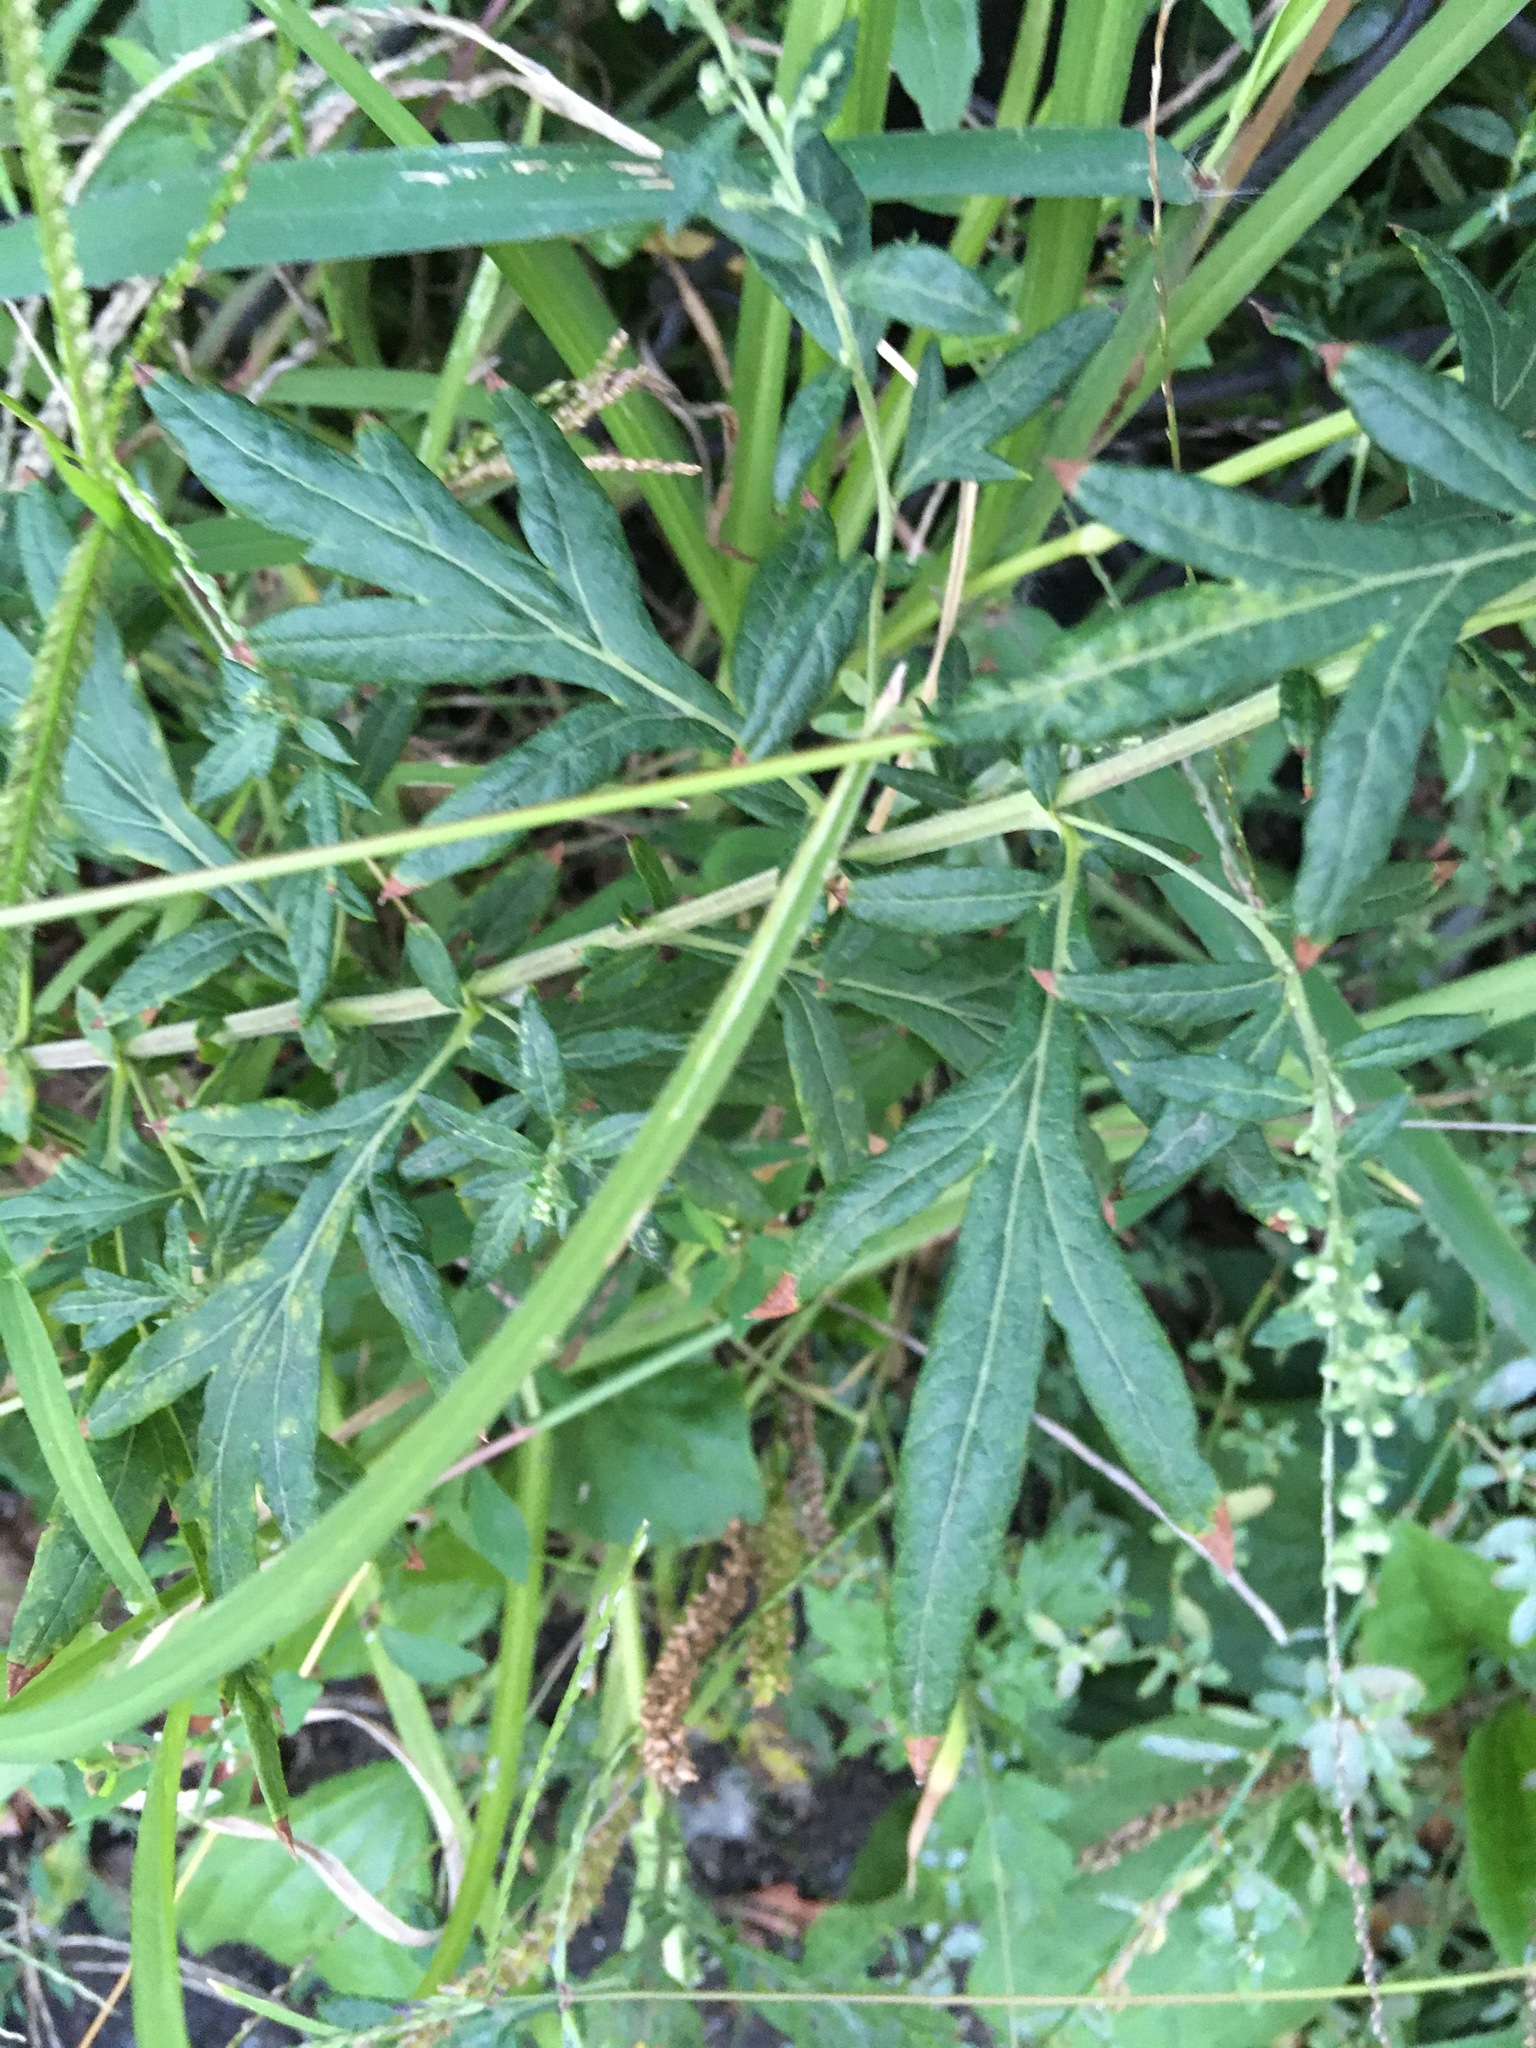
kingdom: Plantae
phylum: Tracheophyta
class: Magnoliopsida
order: Asterales
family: Asteraceae
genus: Artemisia
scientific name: Artemisia vulgaris
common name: Mugwort
